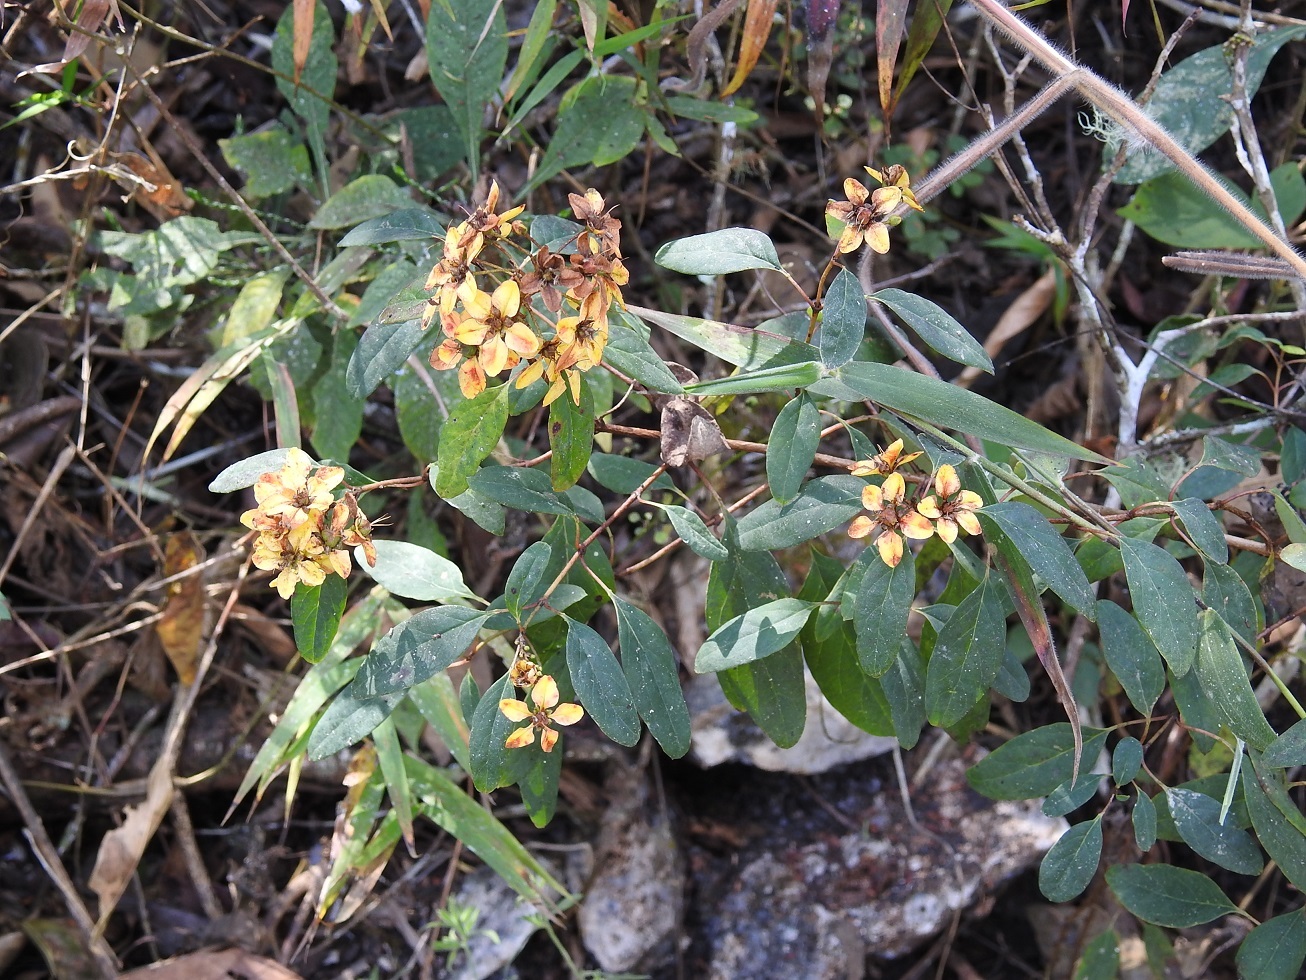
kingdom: Plantae
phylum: Tracheophyta
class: Magnoliopsida
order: Malpighiales
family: Malpighiaceae
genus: Galphimia
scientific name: Galphimia speciosa
